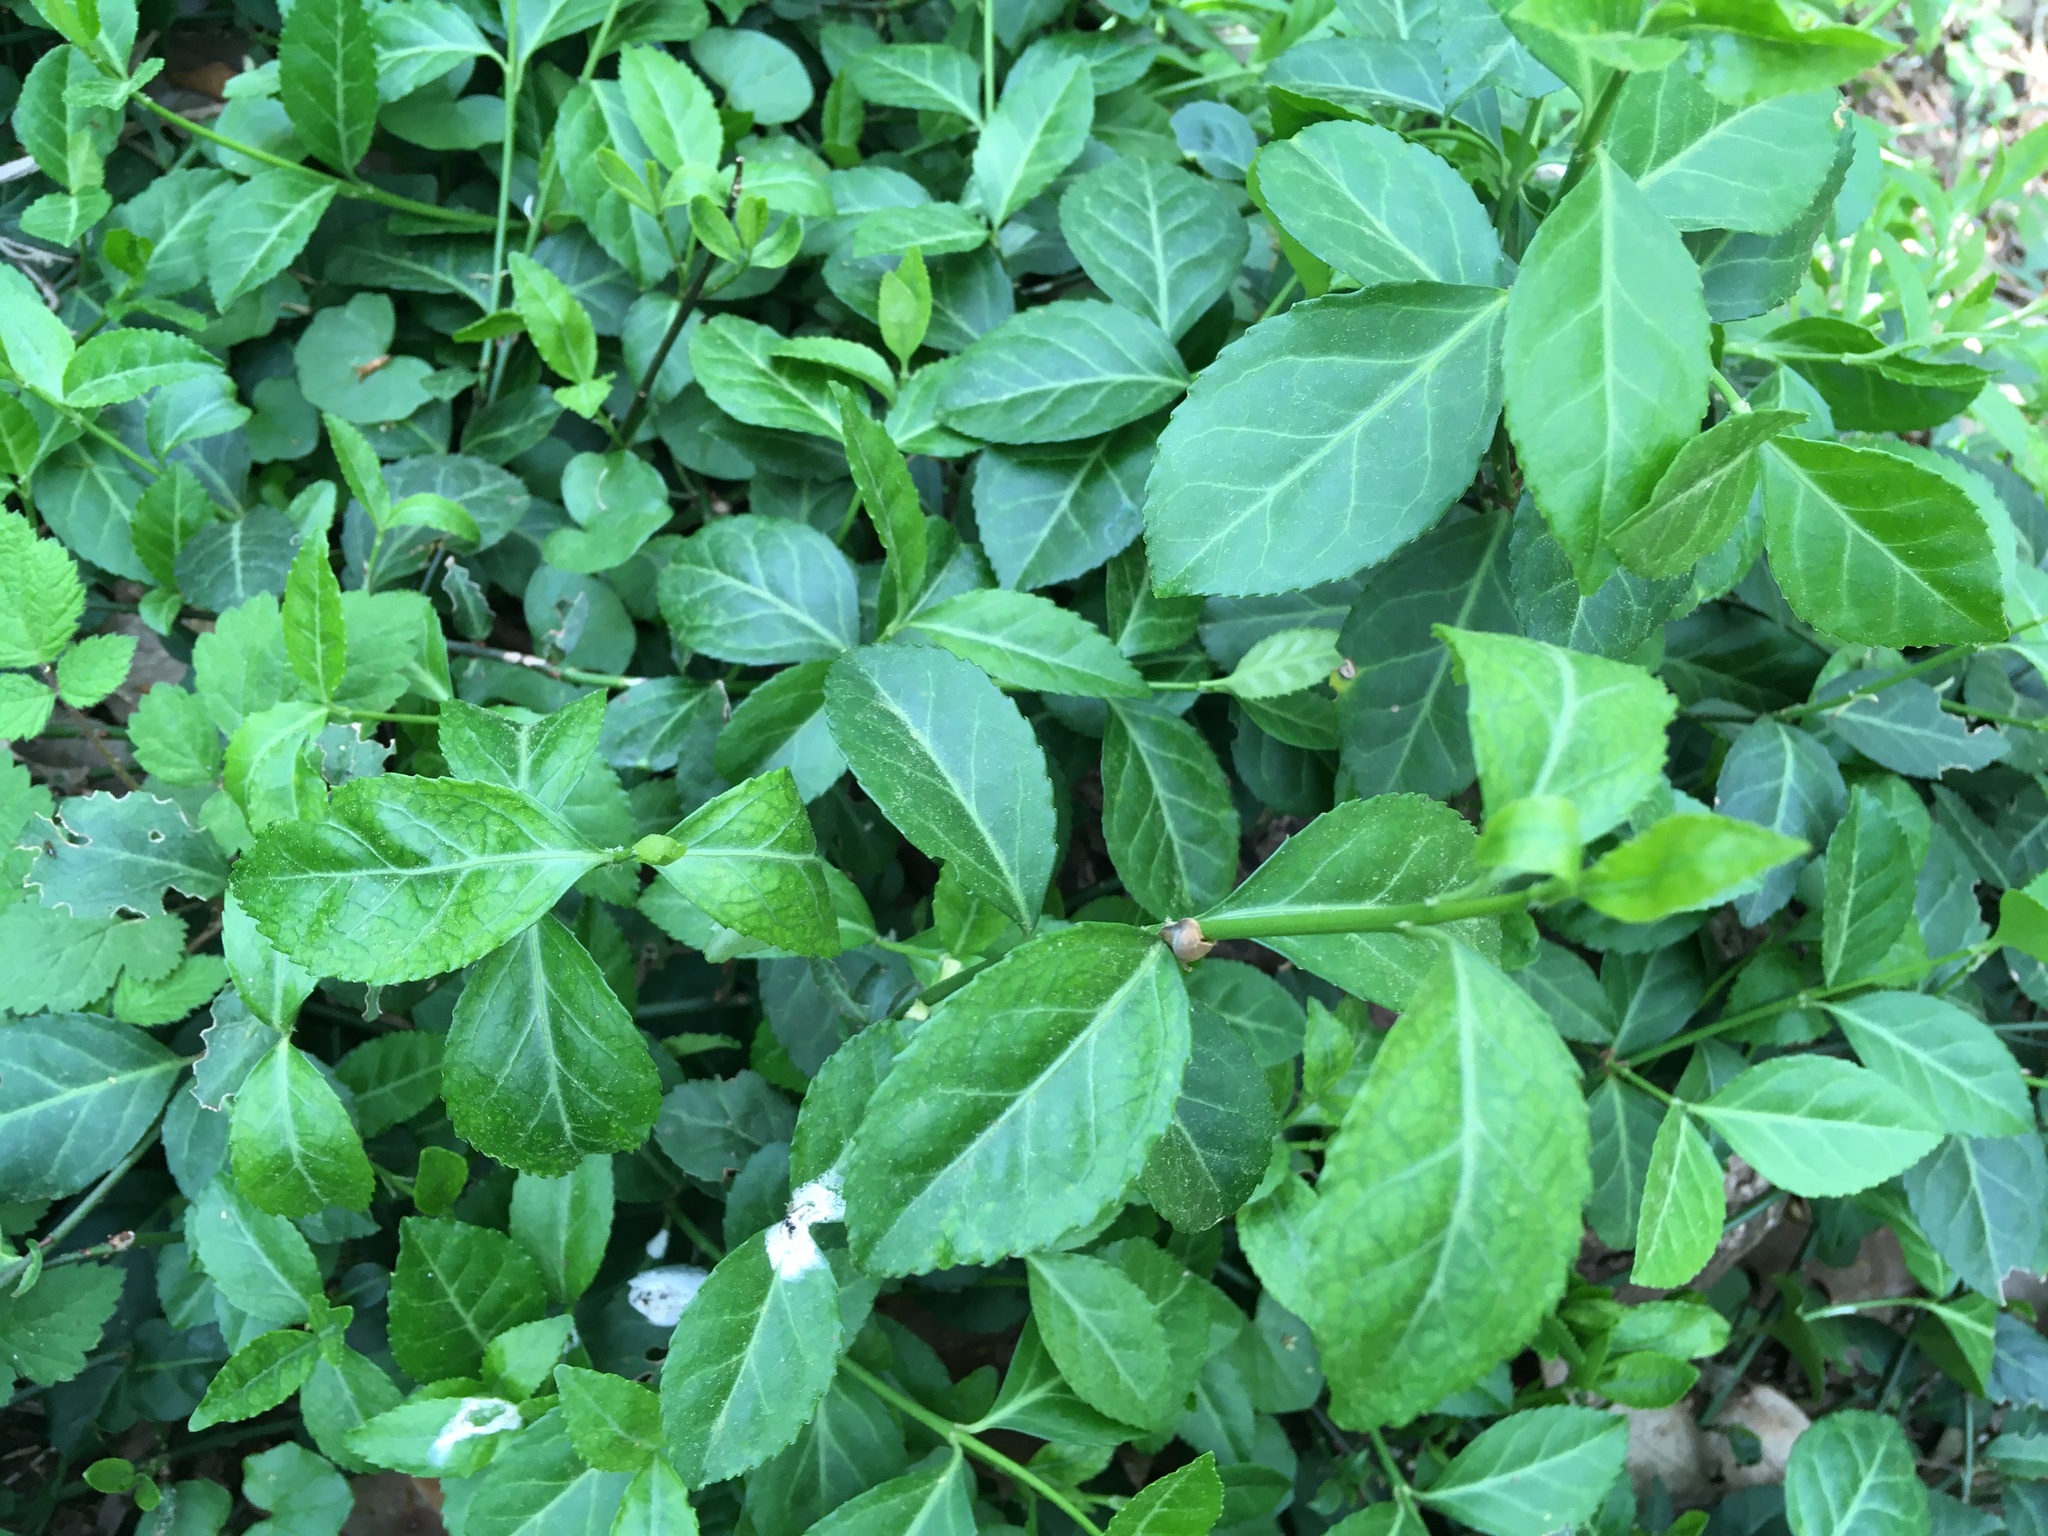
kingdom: Plantae
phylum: Tracheophyta
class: Magnoliopsida
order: Celastrales
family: Celastraceae
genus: Euonymus
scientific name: Euonymus fortunei
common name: Climbing euonymus
